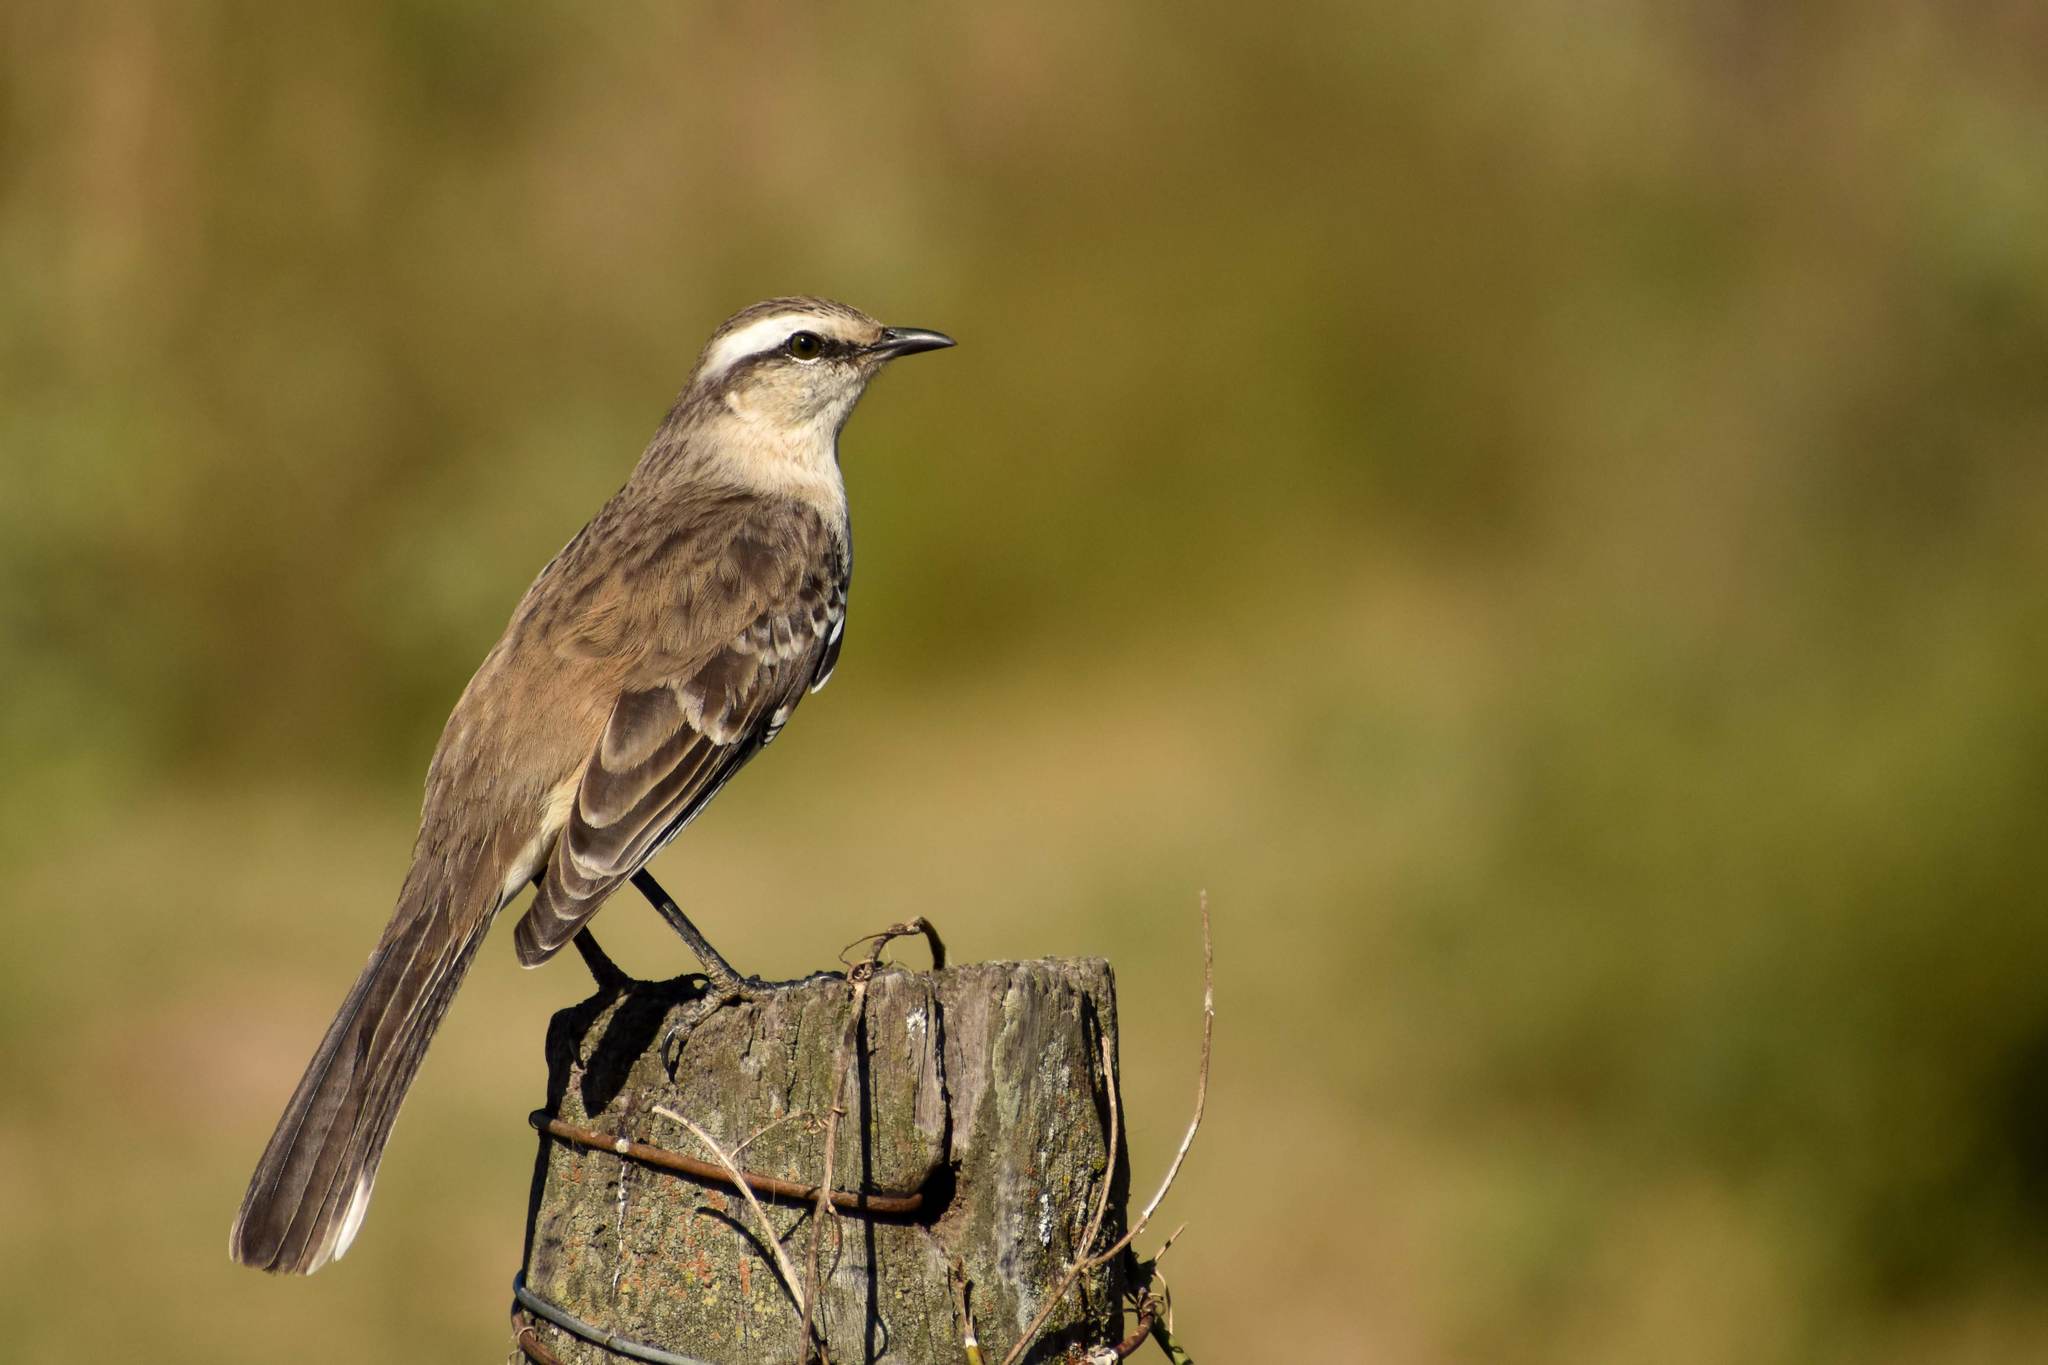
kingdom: Animalia
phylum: Chordata
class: Aves
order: Passeriformes
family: Mimidae
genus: Mimus
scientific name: Mimus saturninus
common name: Chalk-browed mockingbird
